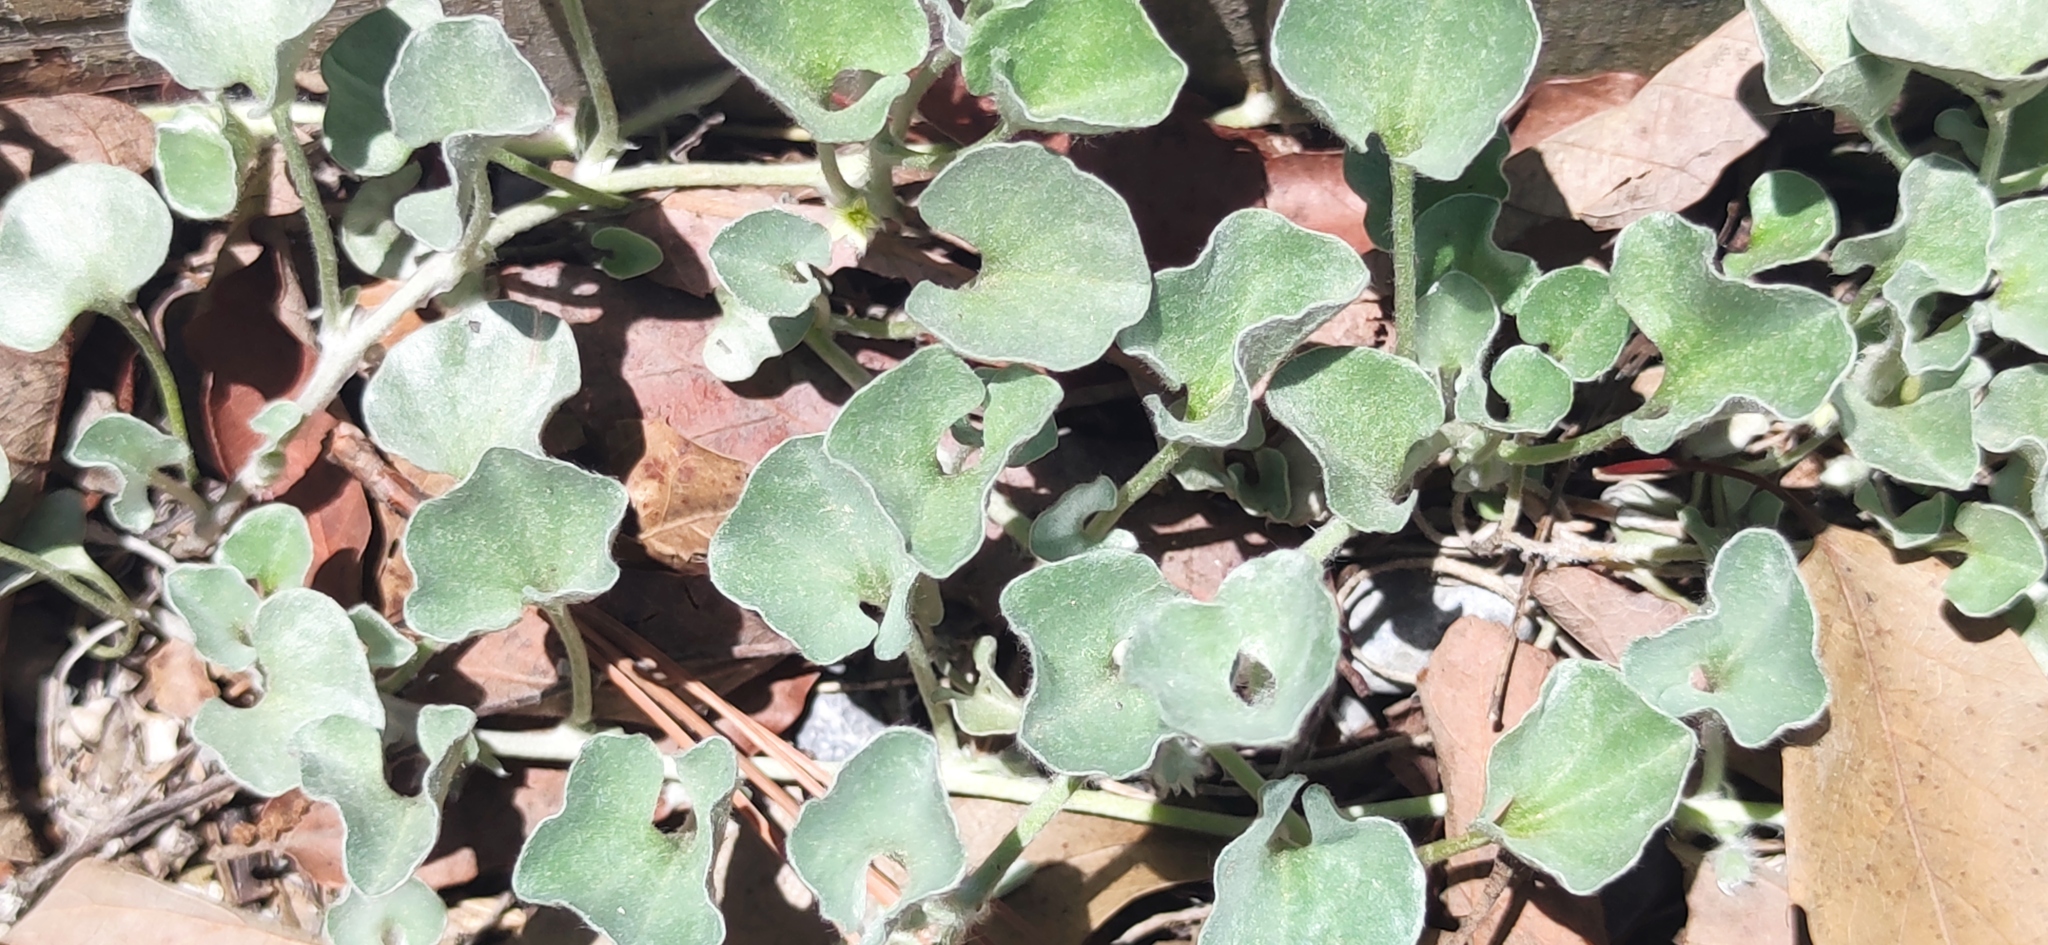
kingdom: Plantae
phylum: Tracheophyta
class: Magnoliopsida
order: Solanales
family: Convolvulaceae
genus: Dichondra
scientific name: Dichondra argentea
